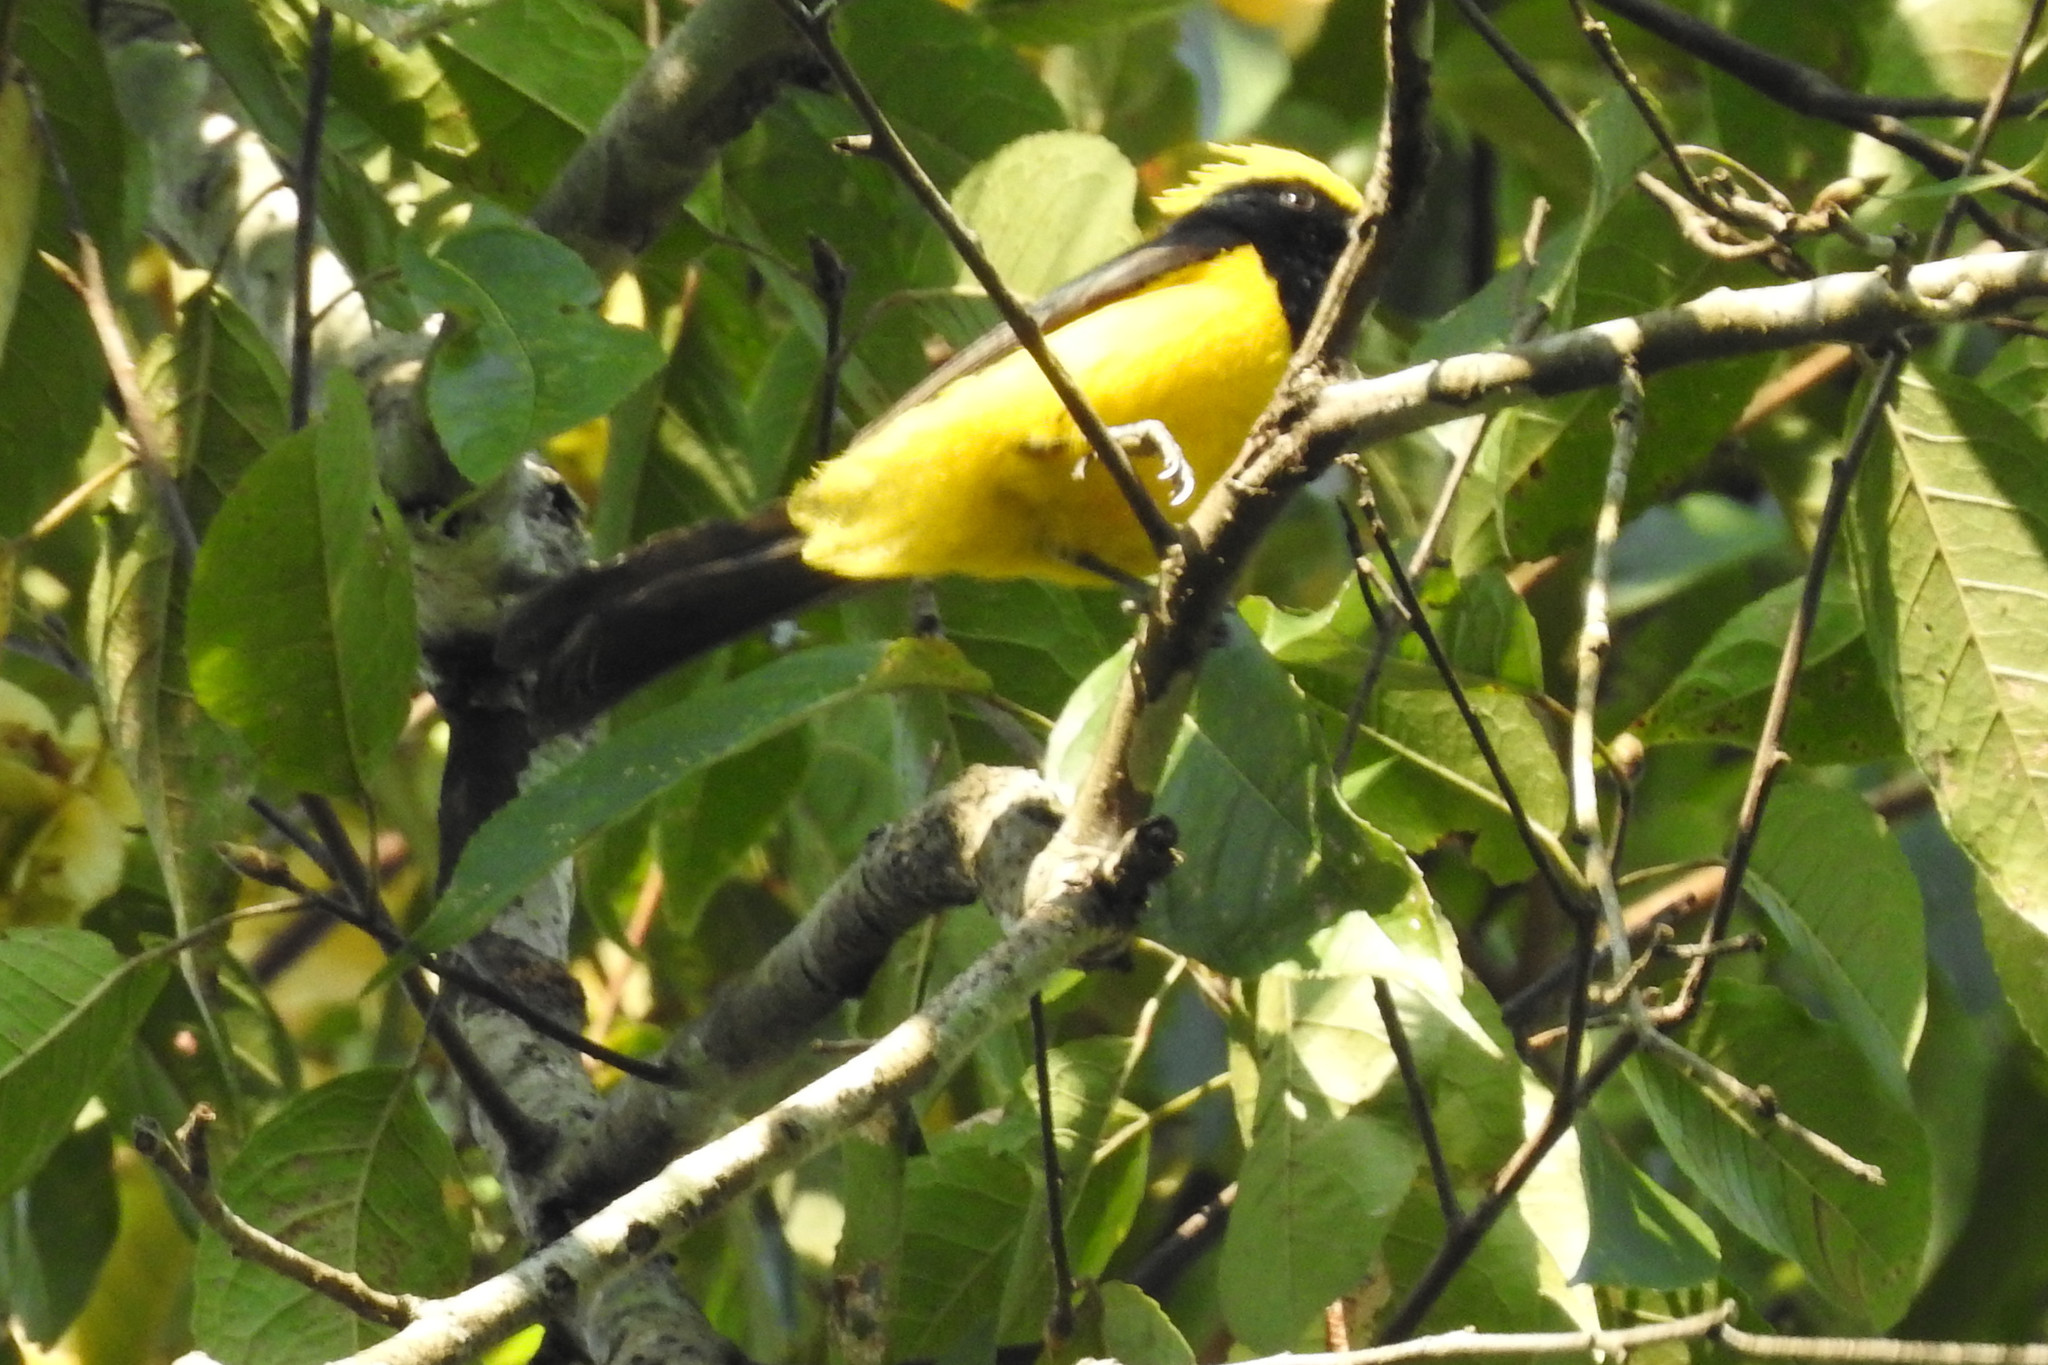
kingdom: Animalia
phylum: Chordata
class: Aves
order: Passeriformes
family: Paridae
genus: Melanochlora
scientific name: Melanochlora sultanea
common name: Sultan tit
